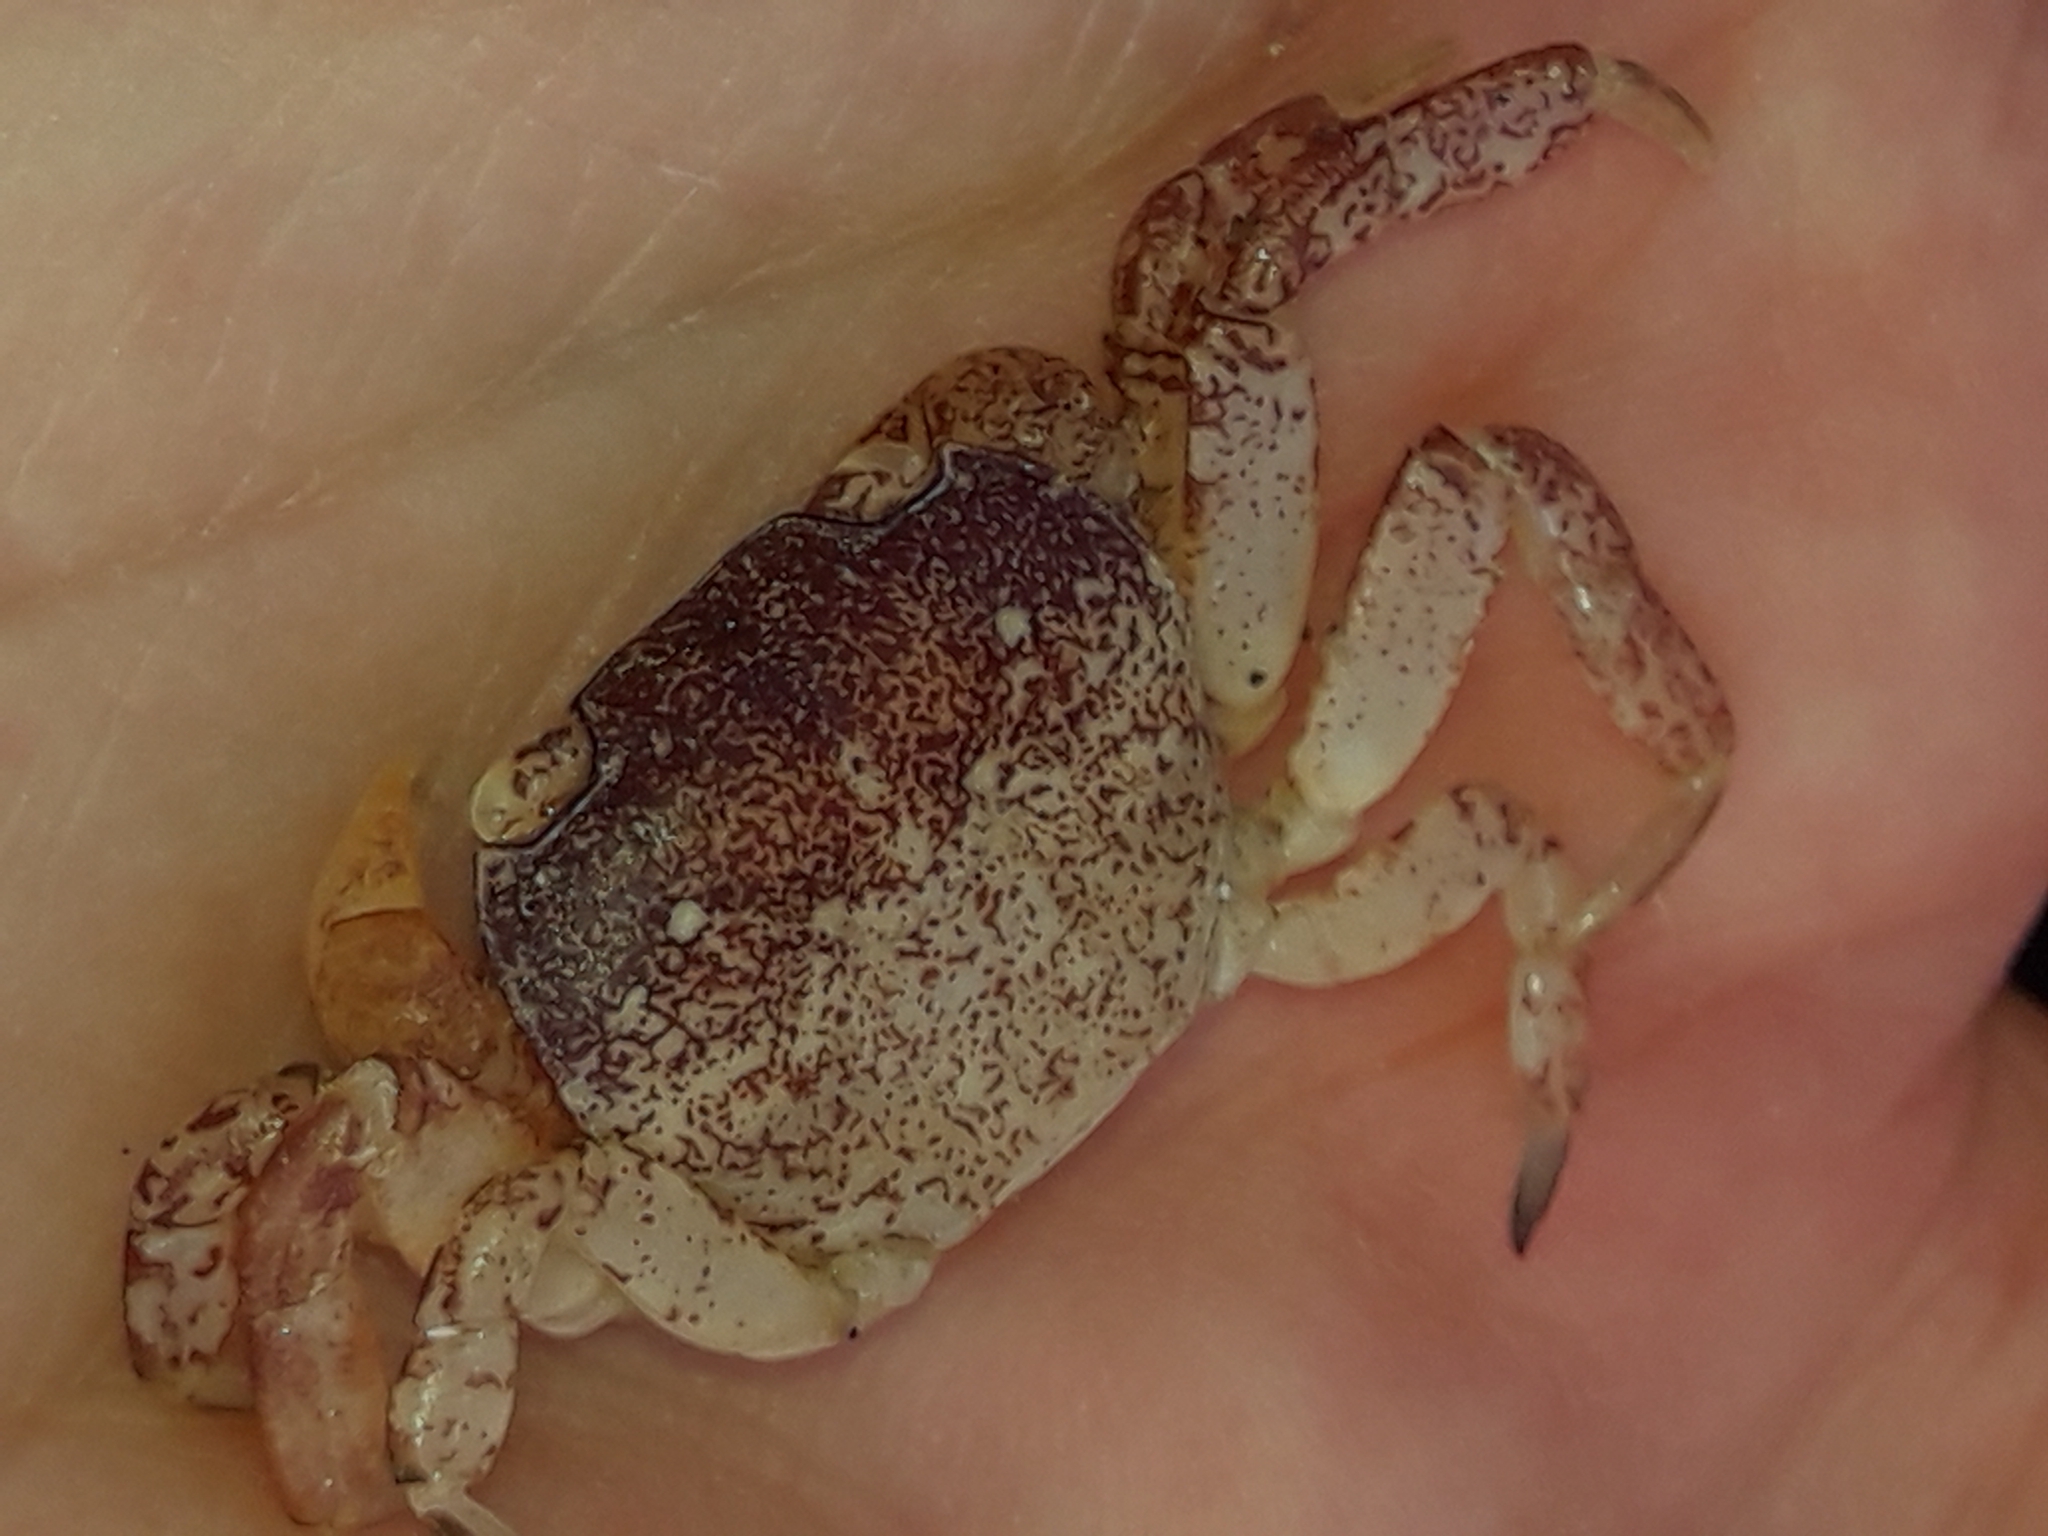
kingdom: Animalia
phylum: Arthropoda
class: Malacostraca
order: Decapoda
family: Varunidae
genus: Cyclograpsus
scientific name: Cyclograpsus lavauxi
